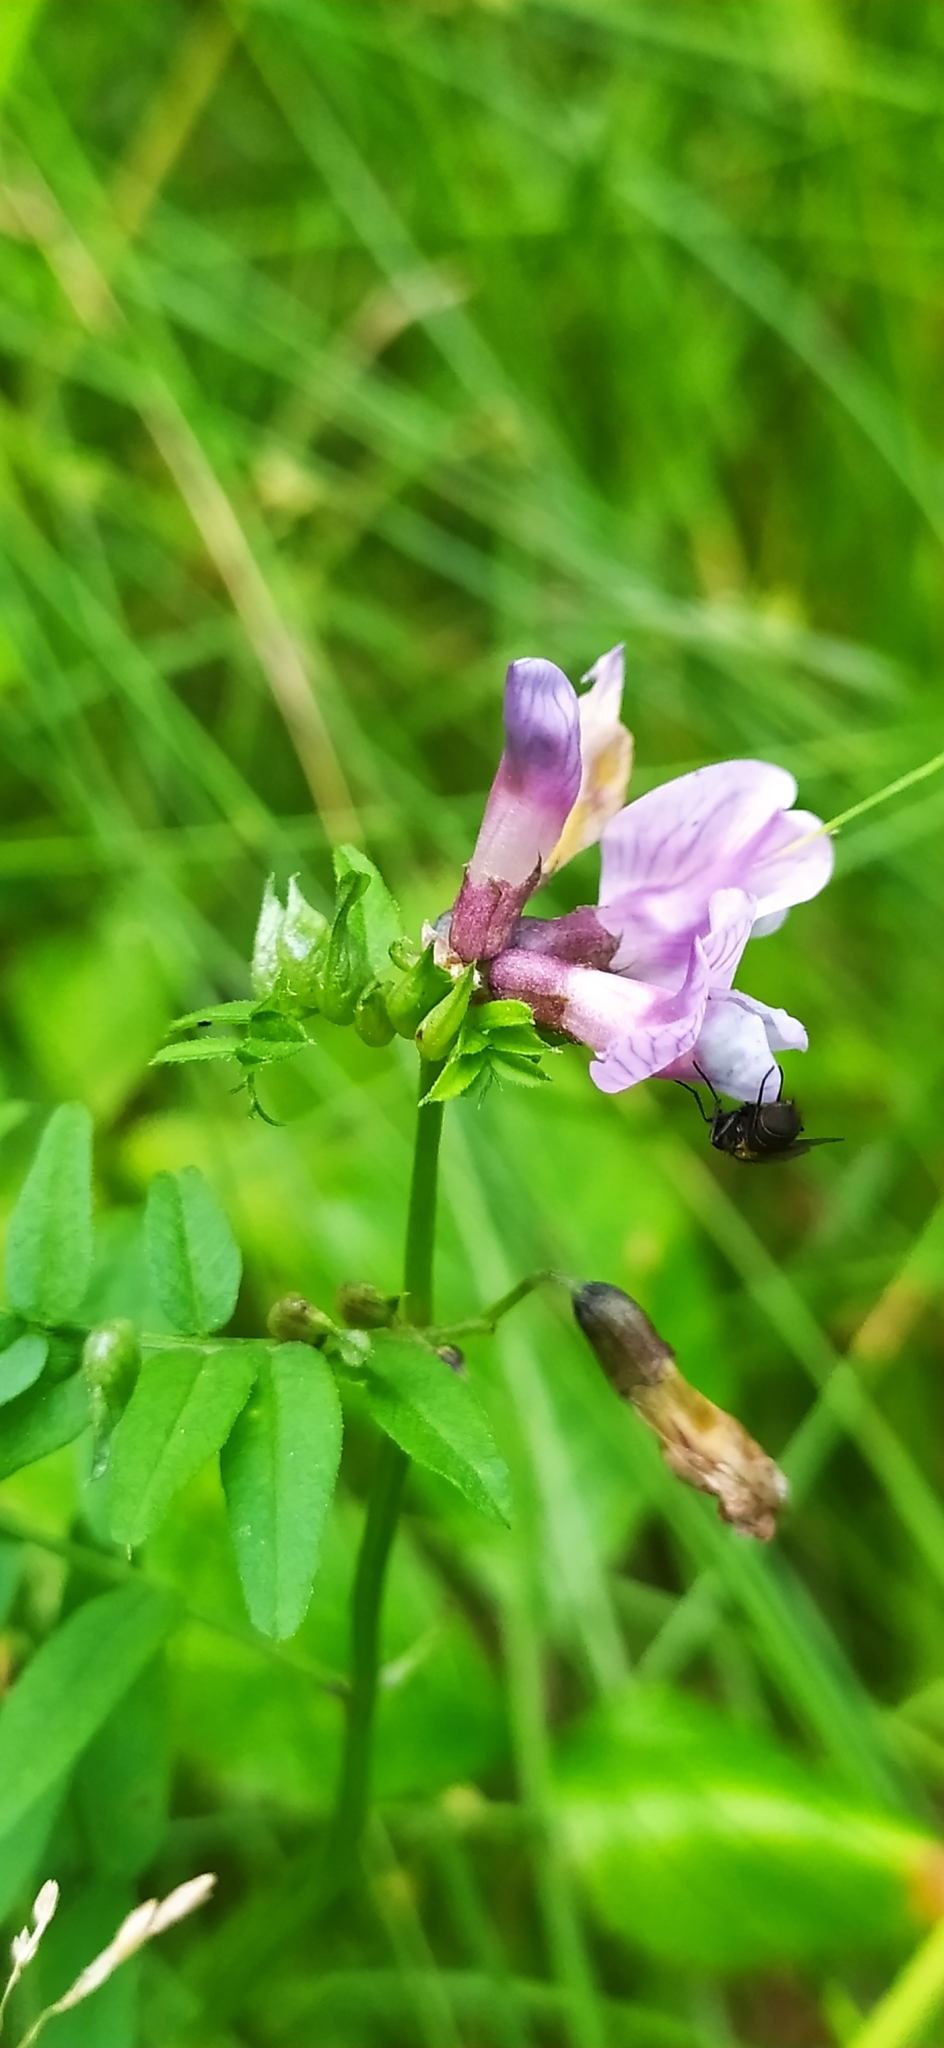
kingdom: Plantae
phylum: Tracheophyta
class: Magnoliopsida
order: Fabales
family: Fabaceae
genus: Vicia
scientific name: Vicia sepium
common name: Bush vetch
